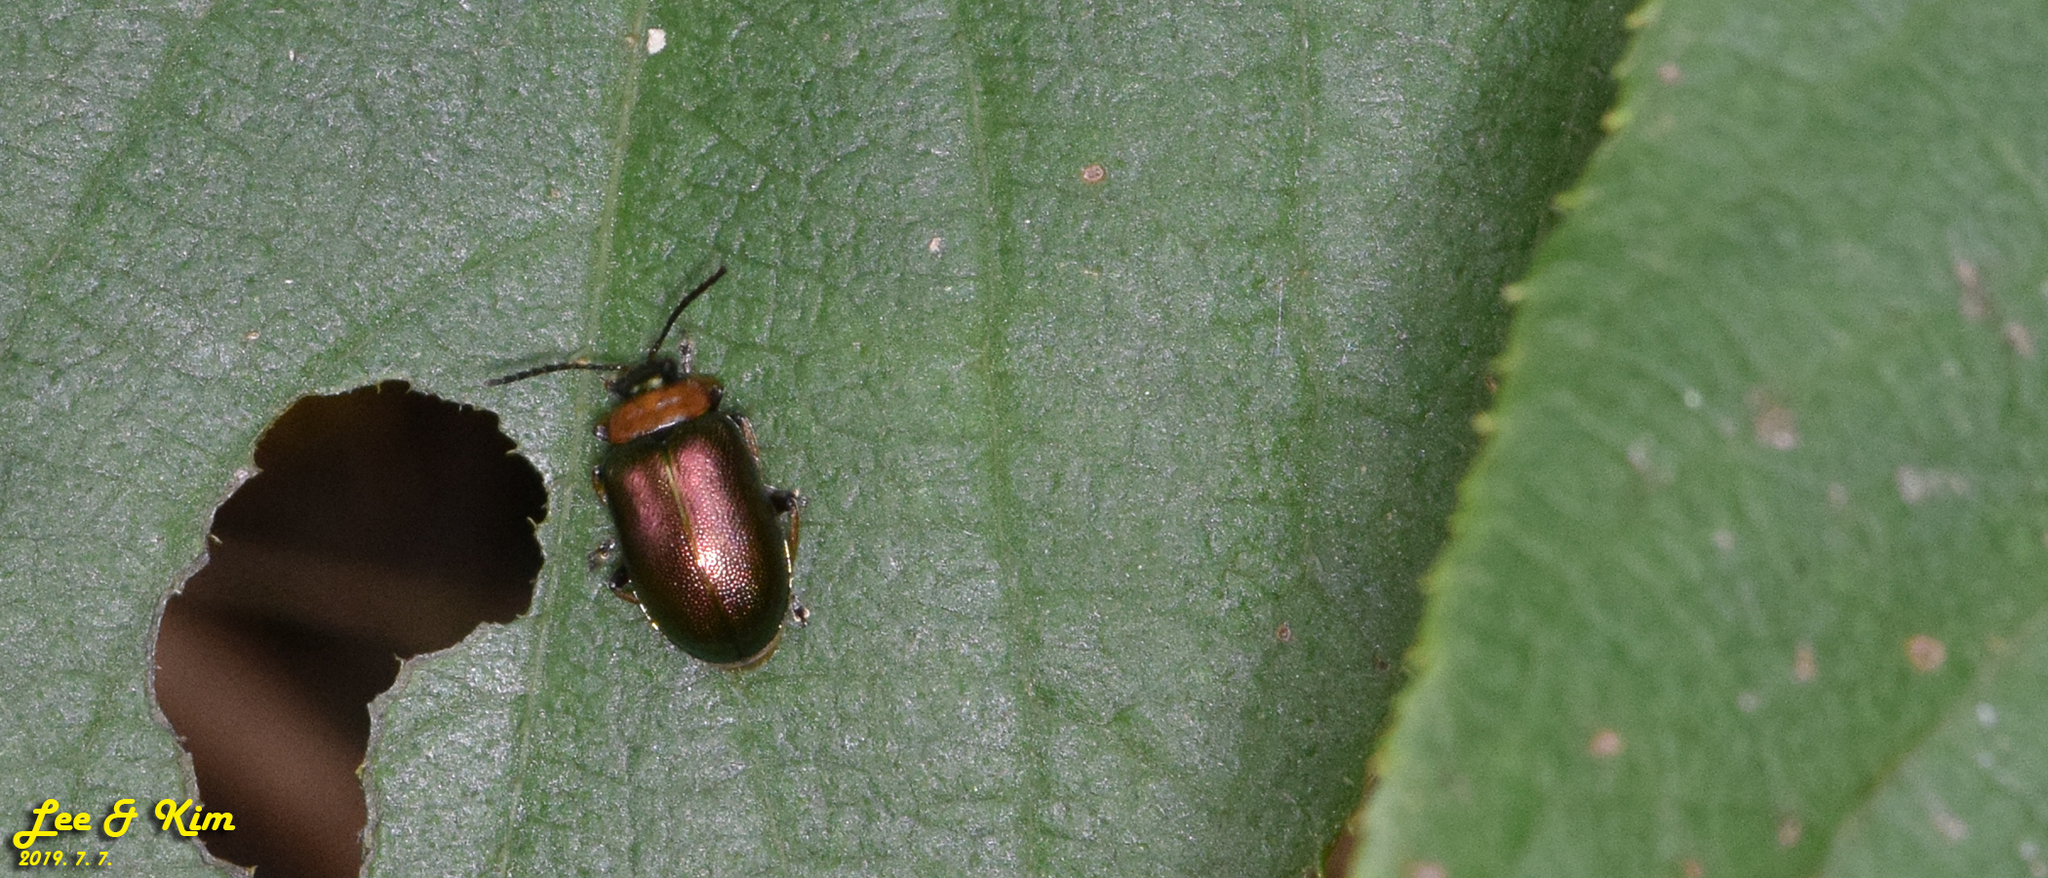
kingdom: Animalia
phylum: Arthropoda
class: Insecta
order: Coleoptera
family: Chrysomelidae
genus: Agelasa
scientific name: Agelasa nigriceps
